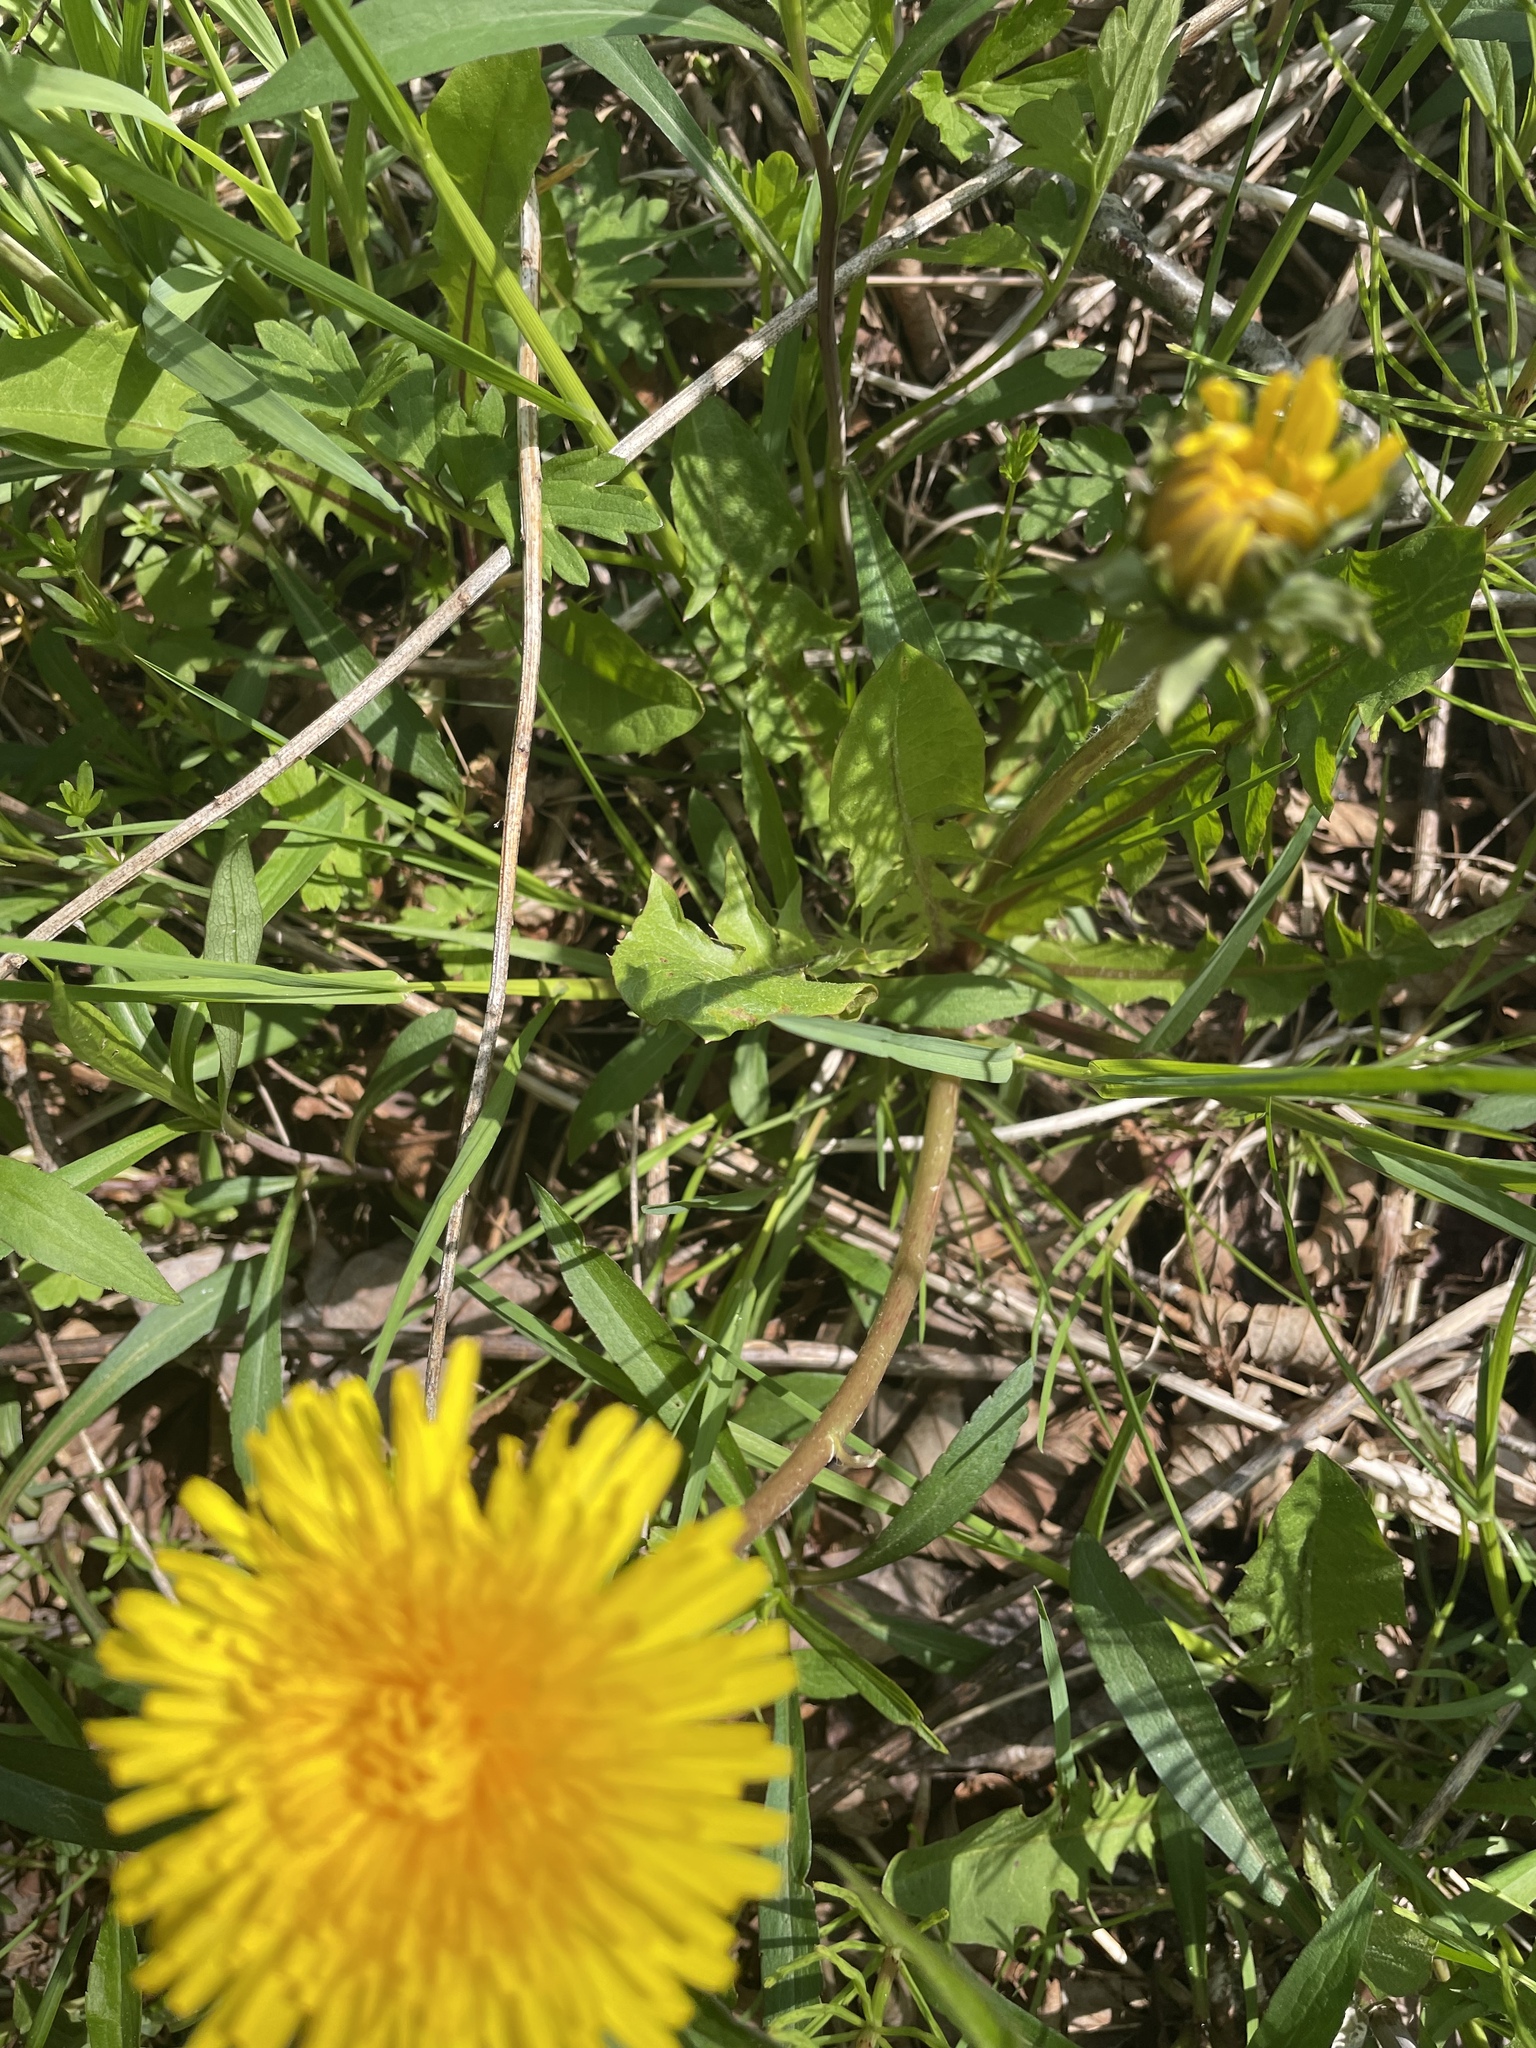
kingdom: Plantae
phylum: Tracheophyta
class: Magnoliopsida
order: Asterales
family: Asteraceae
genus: Taraxacum
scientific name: Taraxacum officinale
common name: Common dandelion
